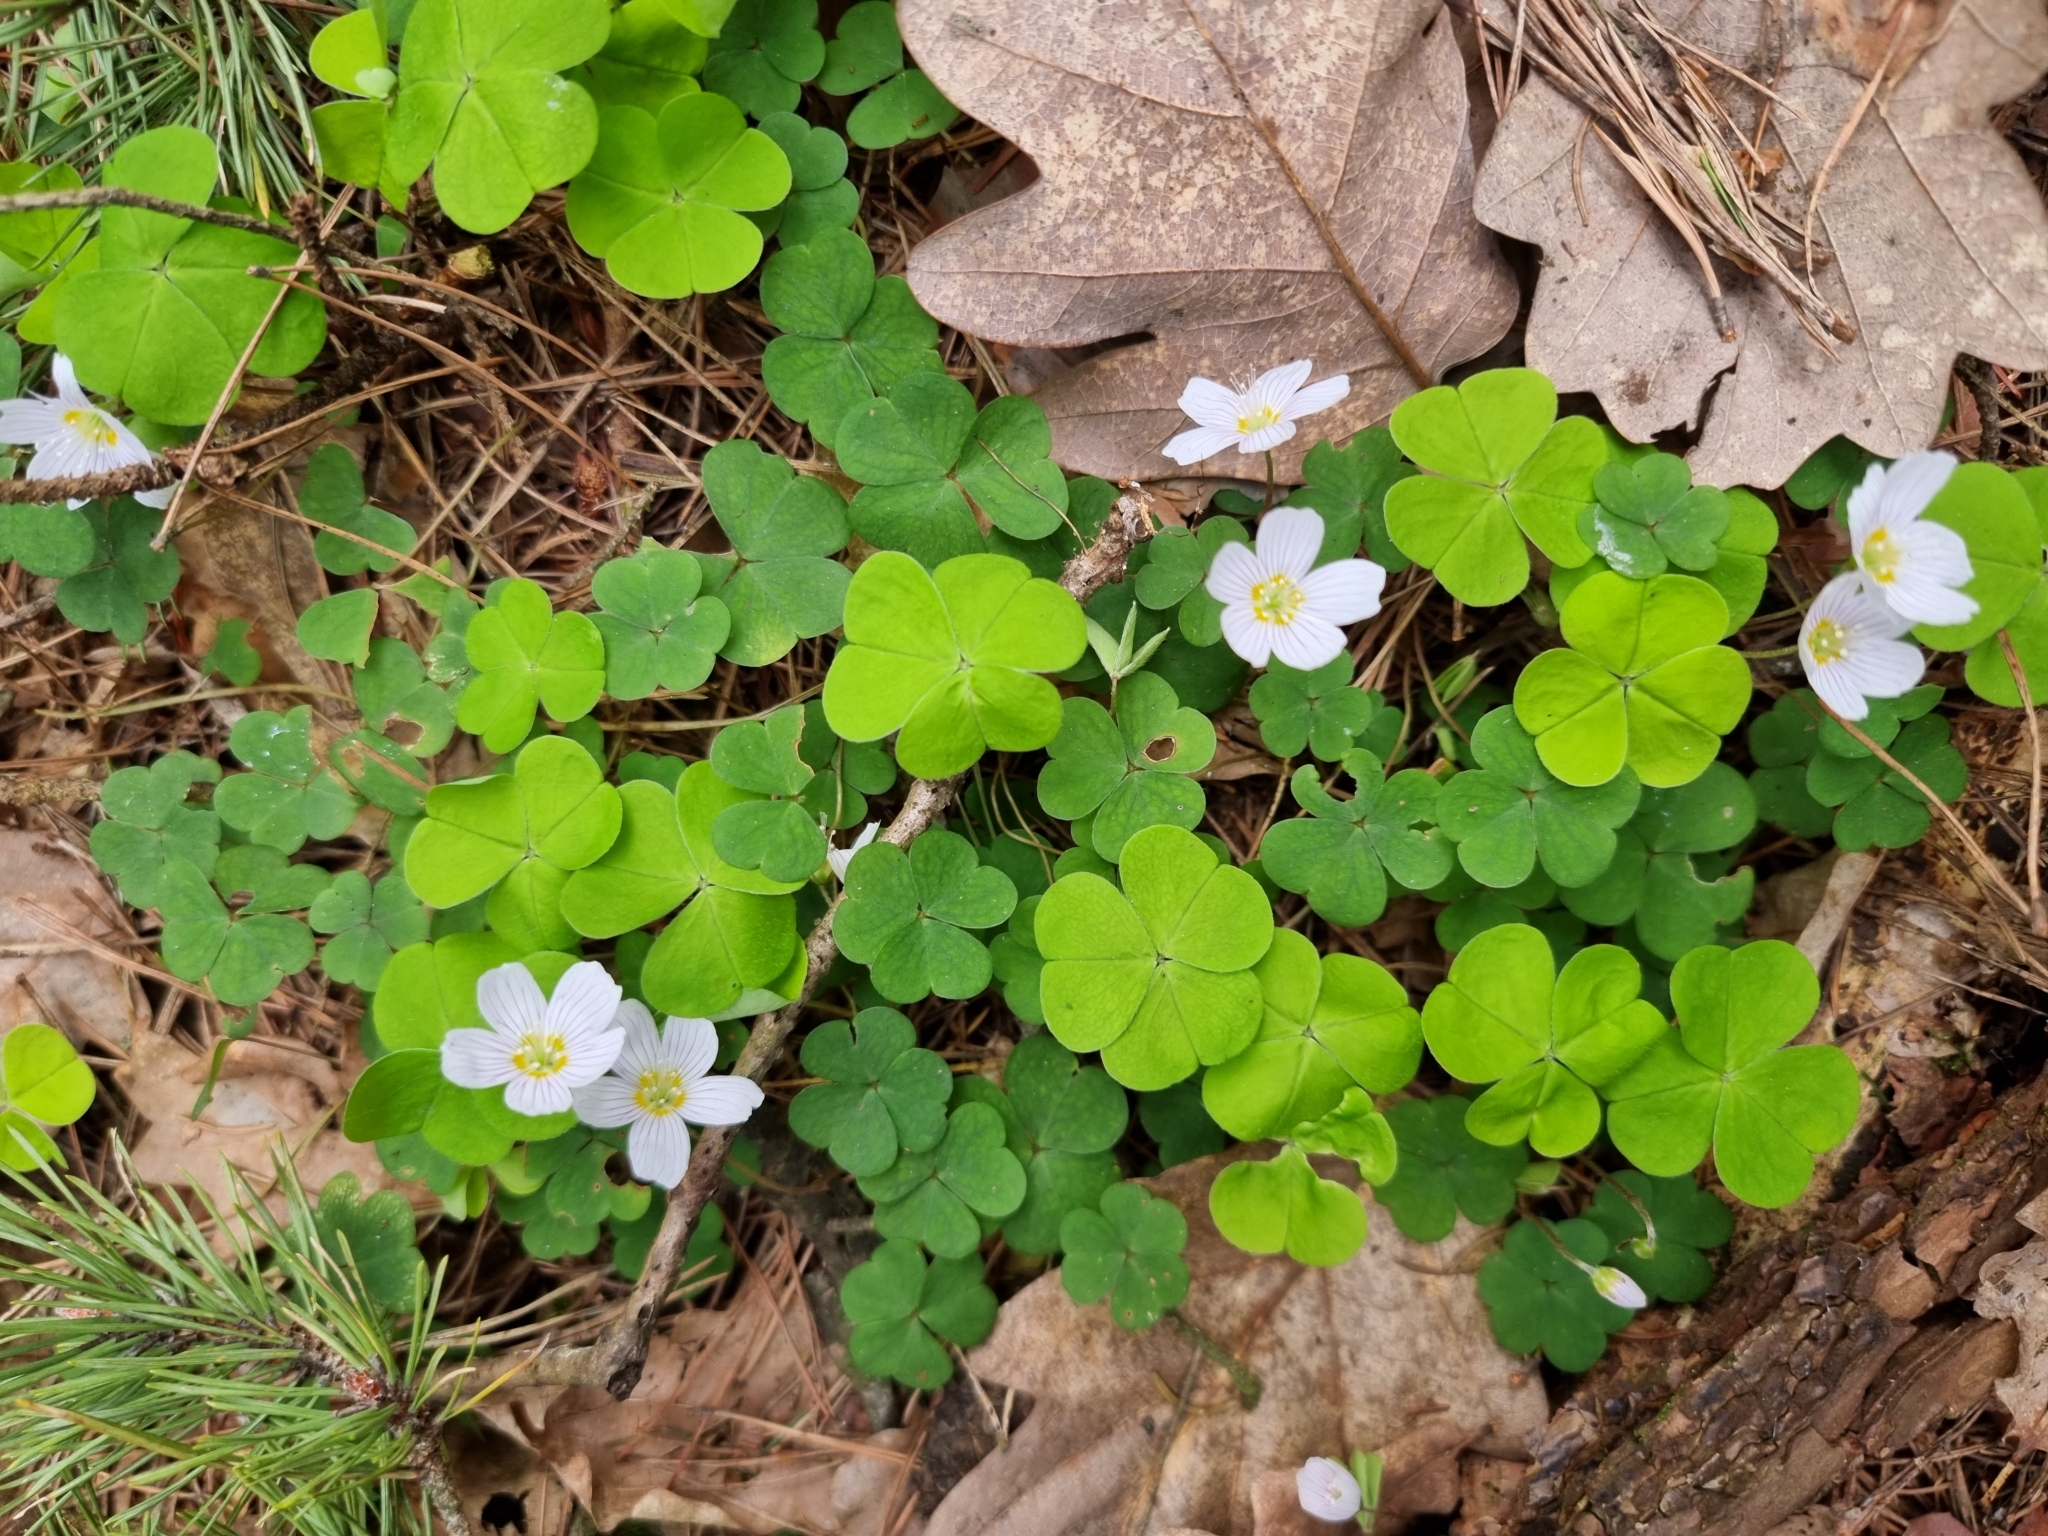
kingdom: Plantae
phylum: Tracheophyta
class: Magnoliopsida
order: Oxalidales
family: Oxalidaceae
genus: Oxalis
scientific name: Oxalis acetosella
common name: Wood-sorrel
